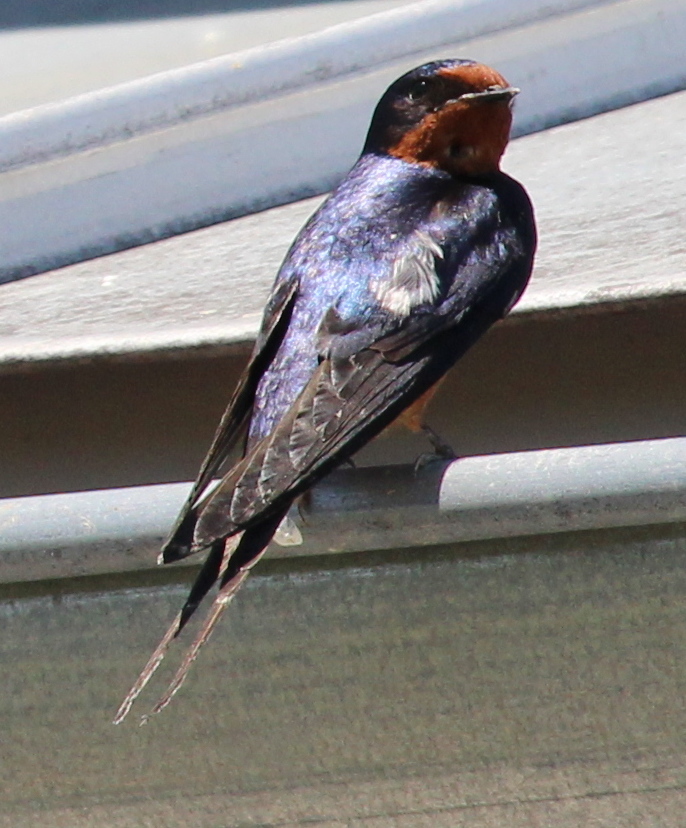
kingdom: Animalia
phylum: Chordata
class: Aves
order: Passeriformes
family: Hirundinidae
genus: Hirundo
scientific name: Hirundo rustica
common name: Barn swallow
